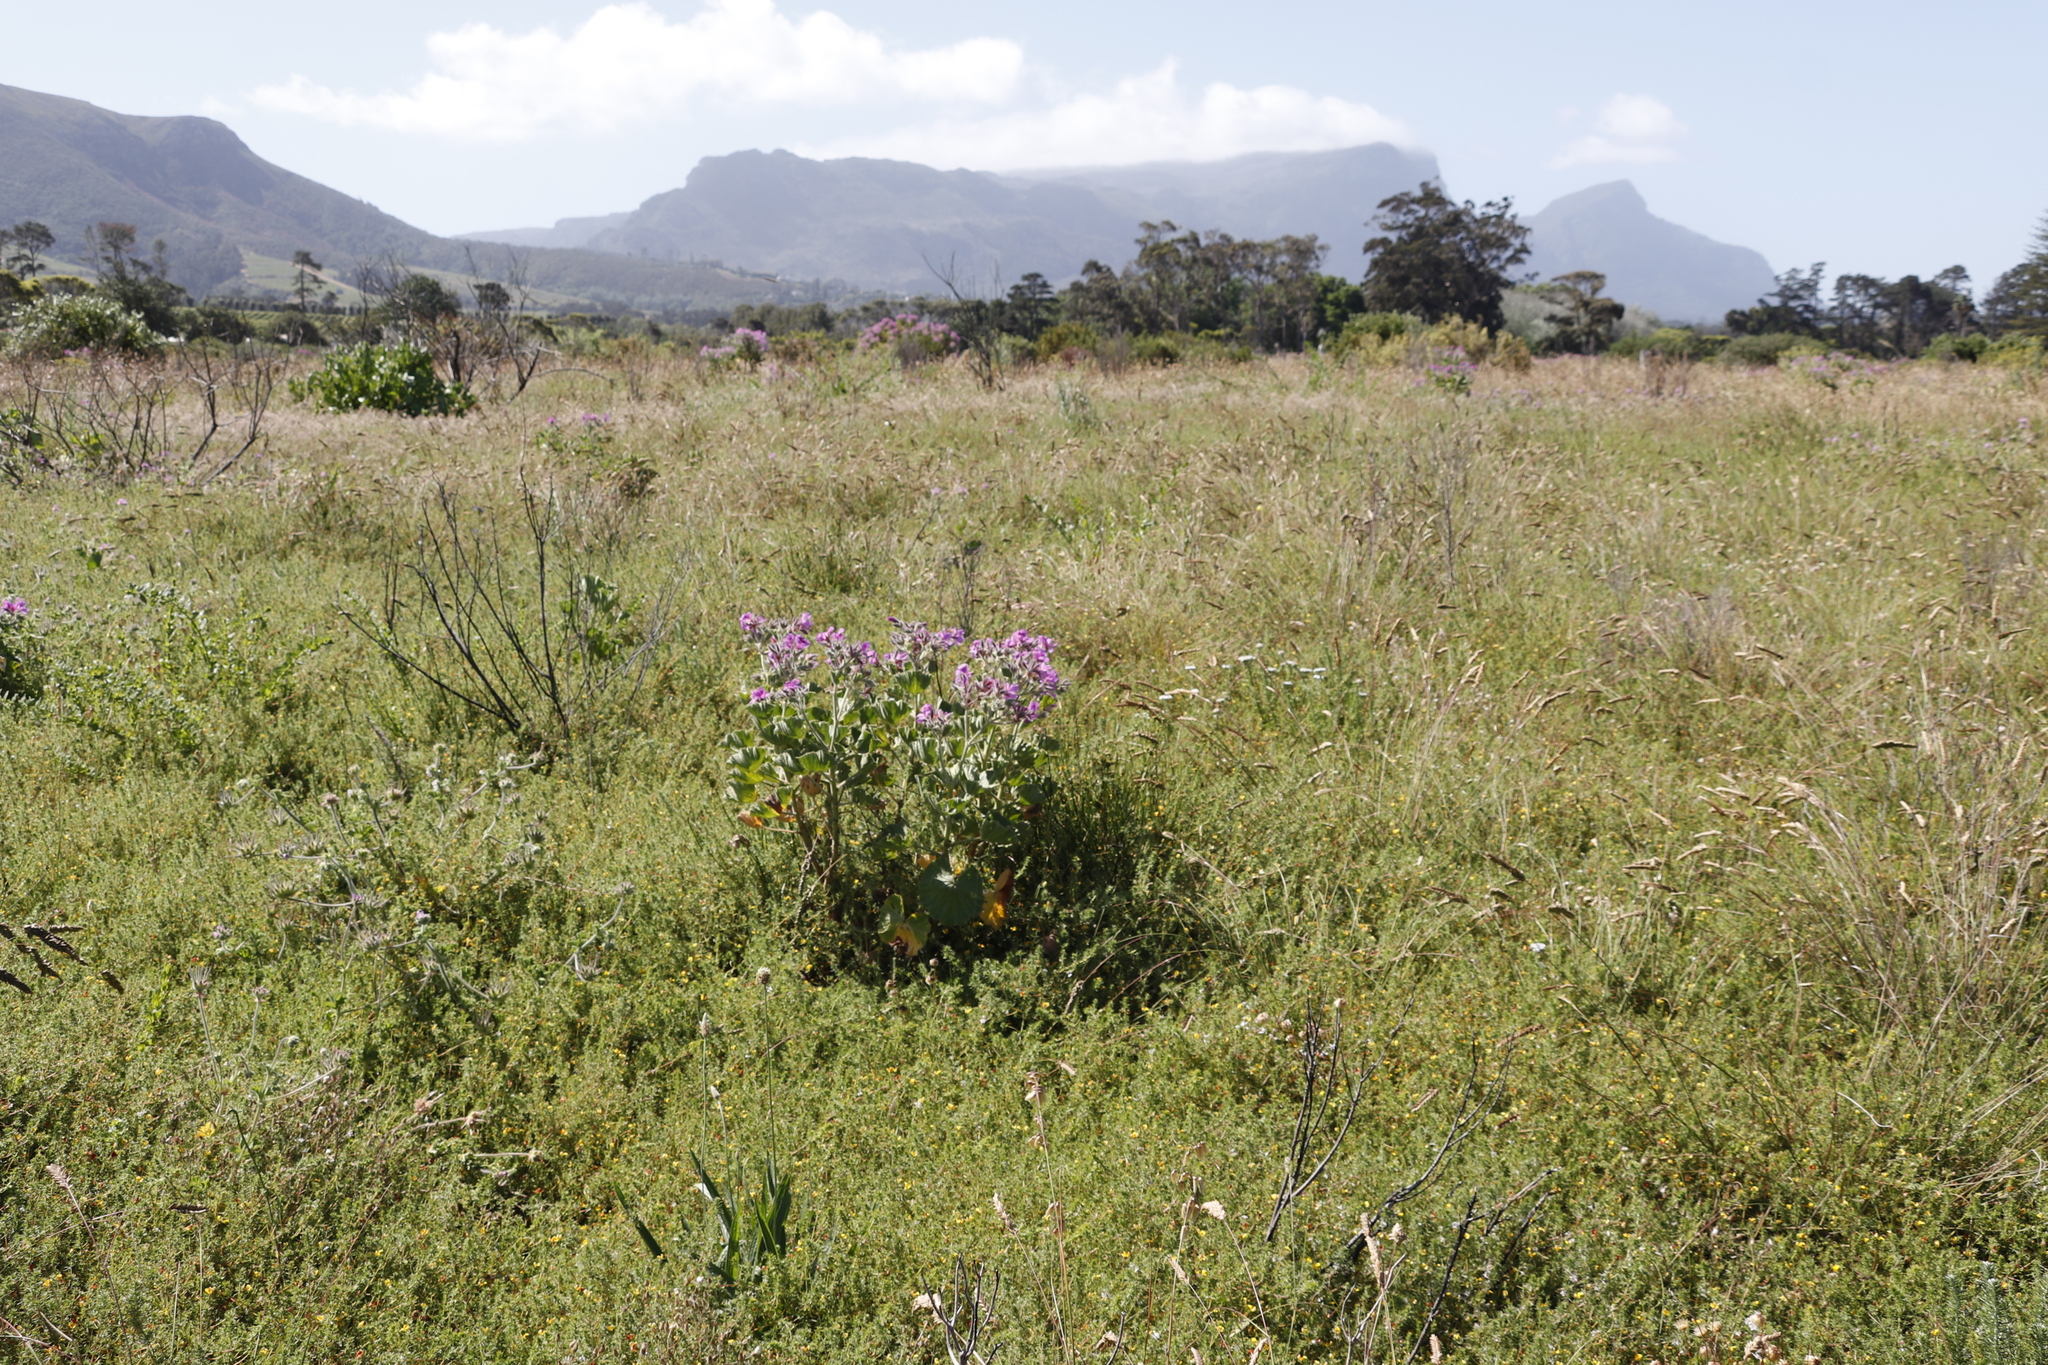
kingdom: Plantae
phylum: Tracheophyta
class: Magnoliopsida
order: Geraniales
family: Geraniaceae
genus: Pelargonium
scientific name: Pelargonium cucullatum
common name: Tree pelargonium
